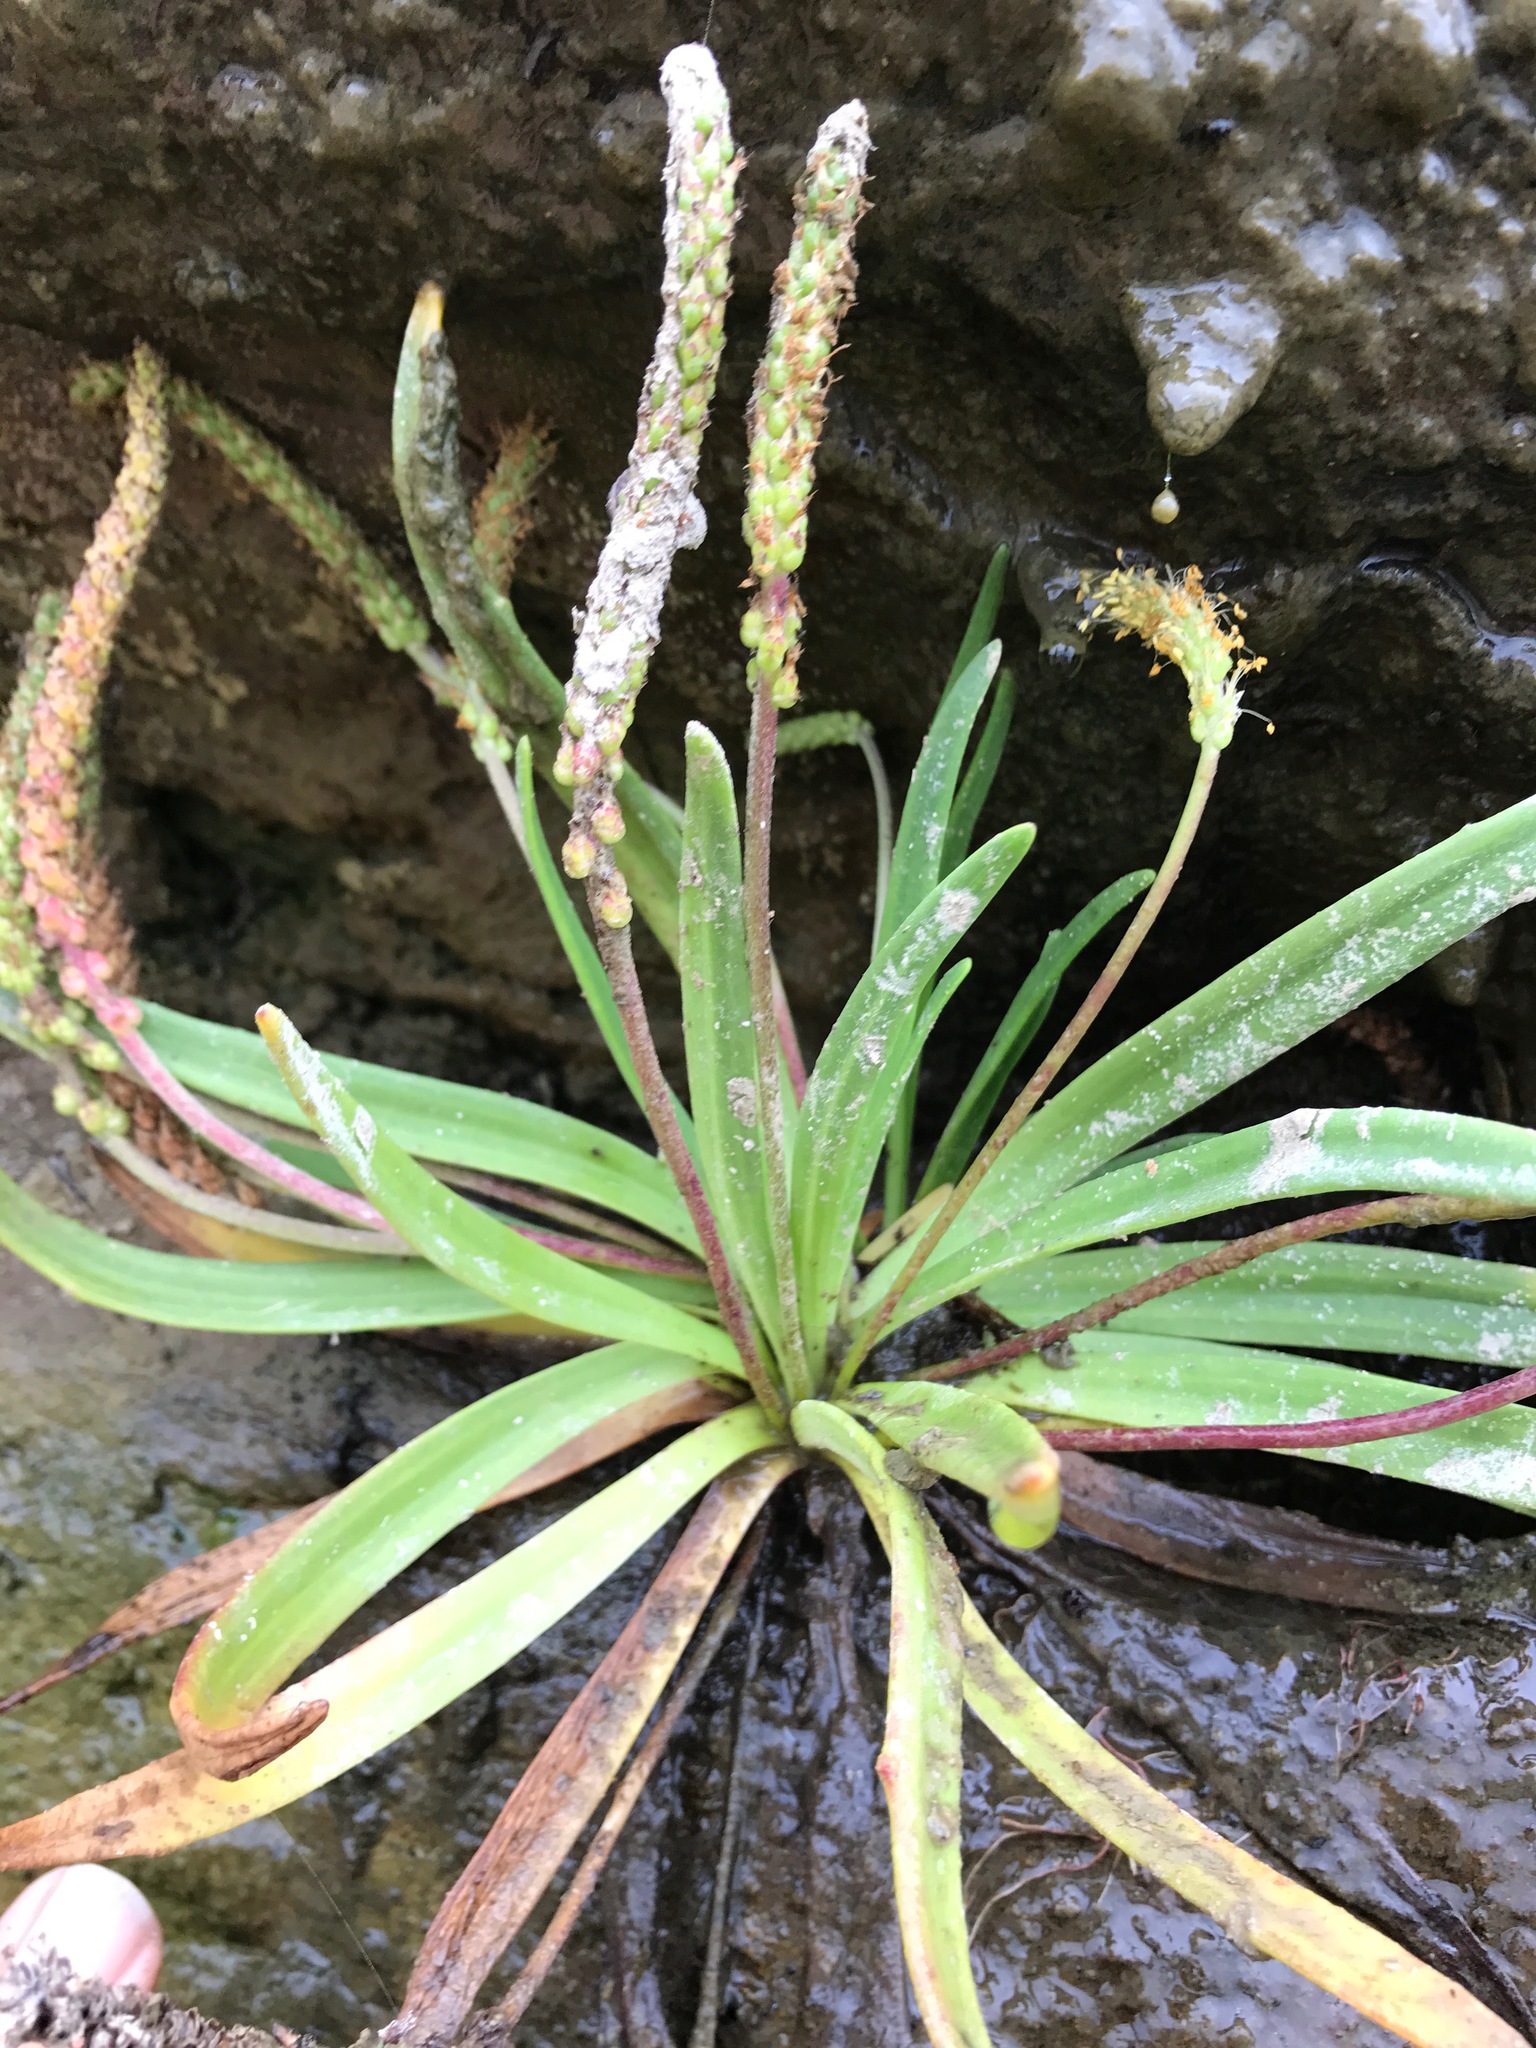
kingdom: Plantae
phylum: Tracheophyta
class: Magnoliopsida
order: Lamiales
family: Plantaginaceae
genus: Plantago
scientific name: Plantago maritima
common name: Sea plantain
